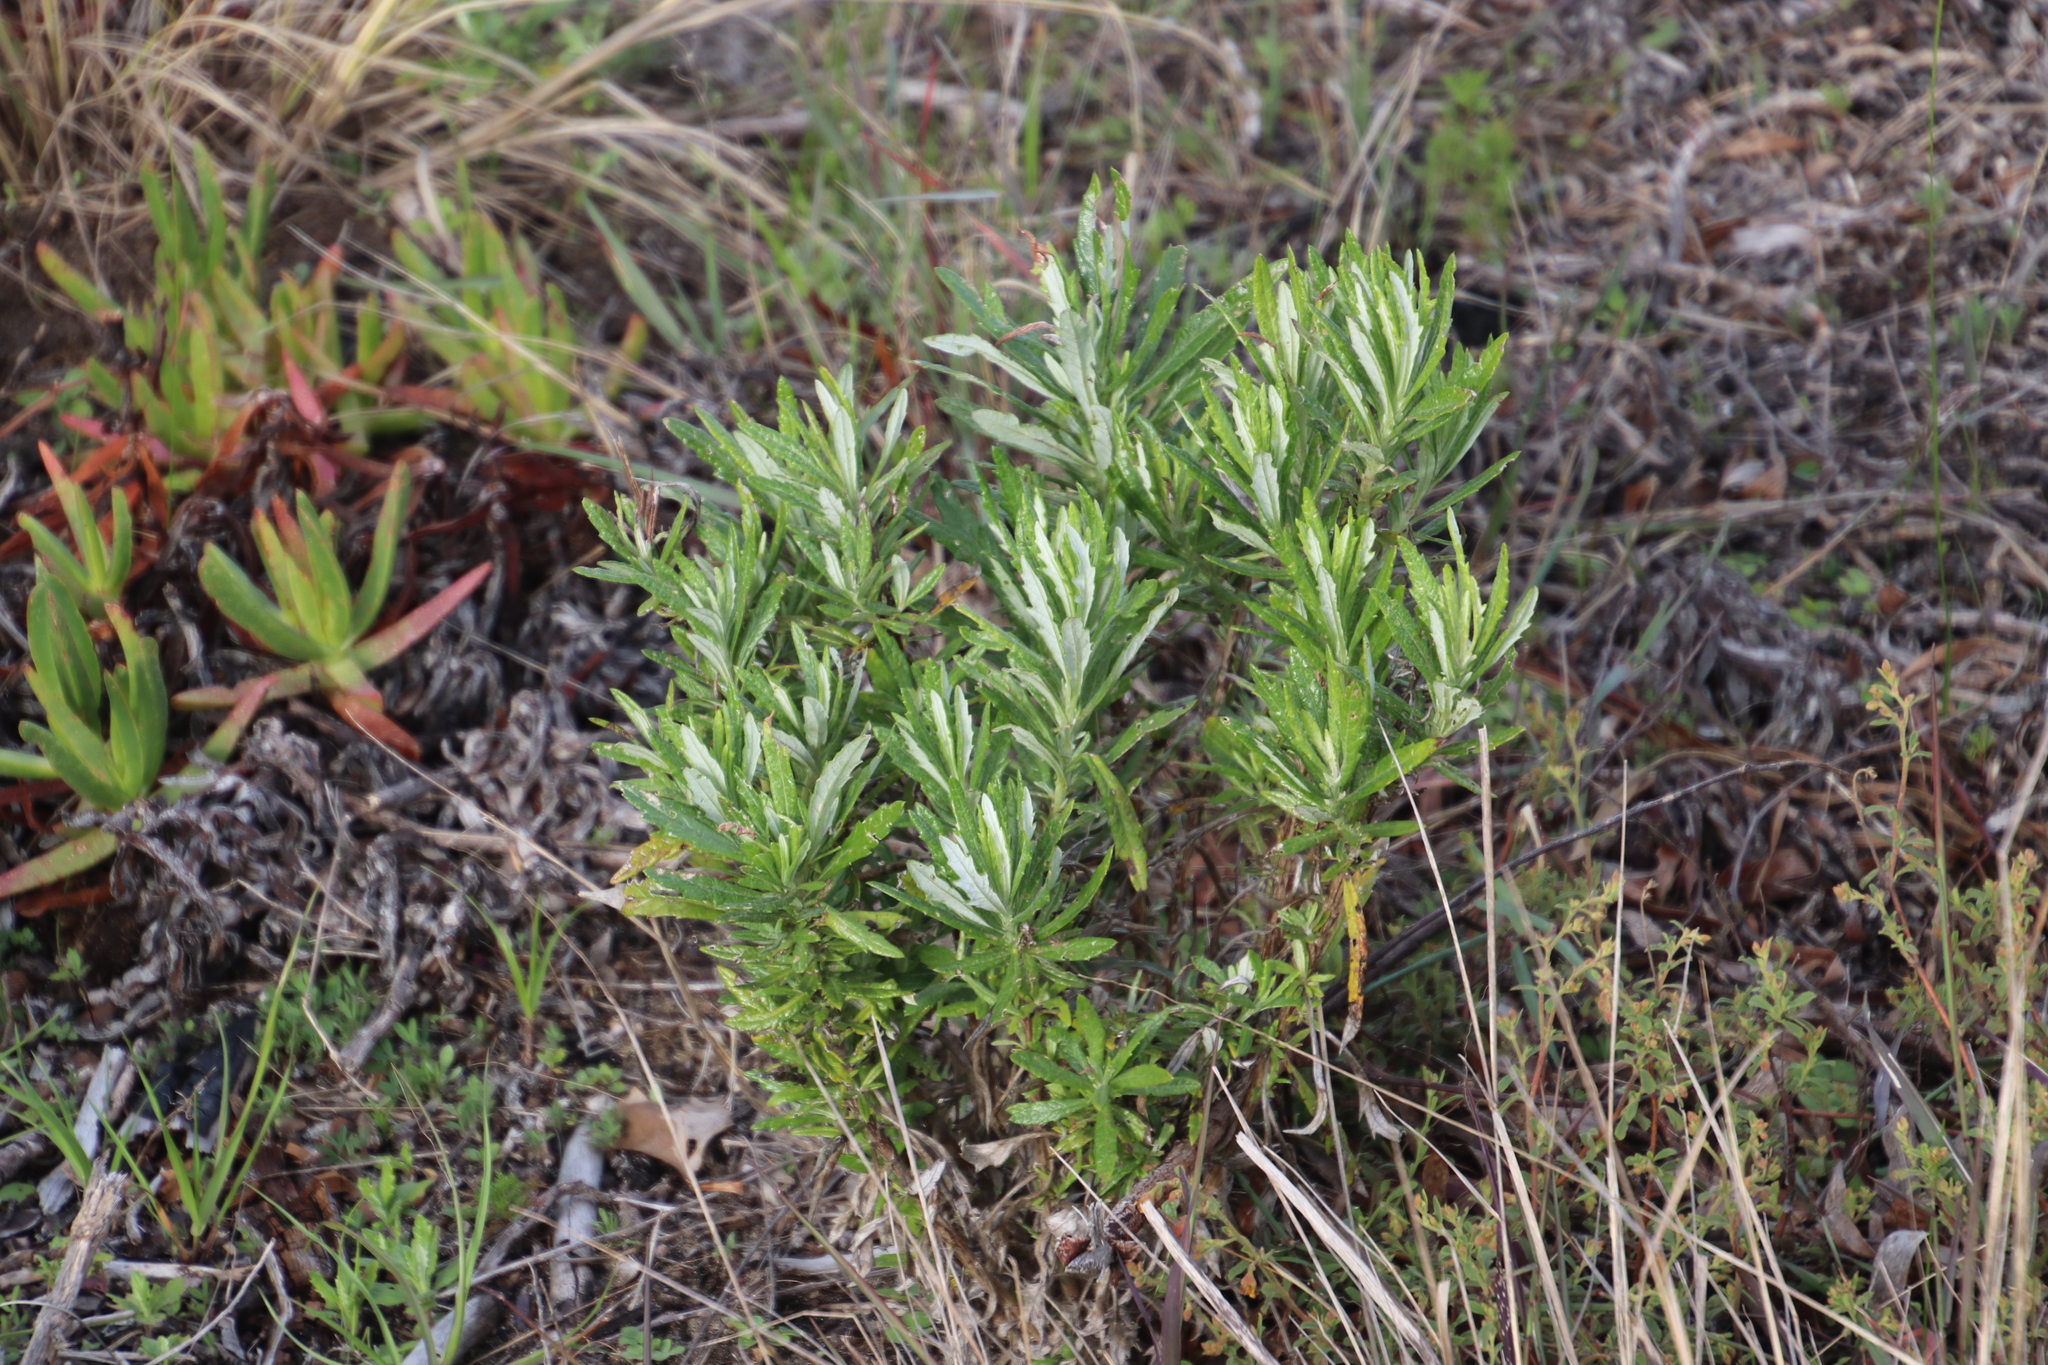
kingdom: Plantae
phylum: Tracheophyta
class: Magnoliopsida
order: Asterales
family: Asteraceae
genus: Senecio
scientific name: Senecio pterophorus
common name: Shoddy ragwort
